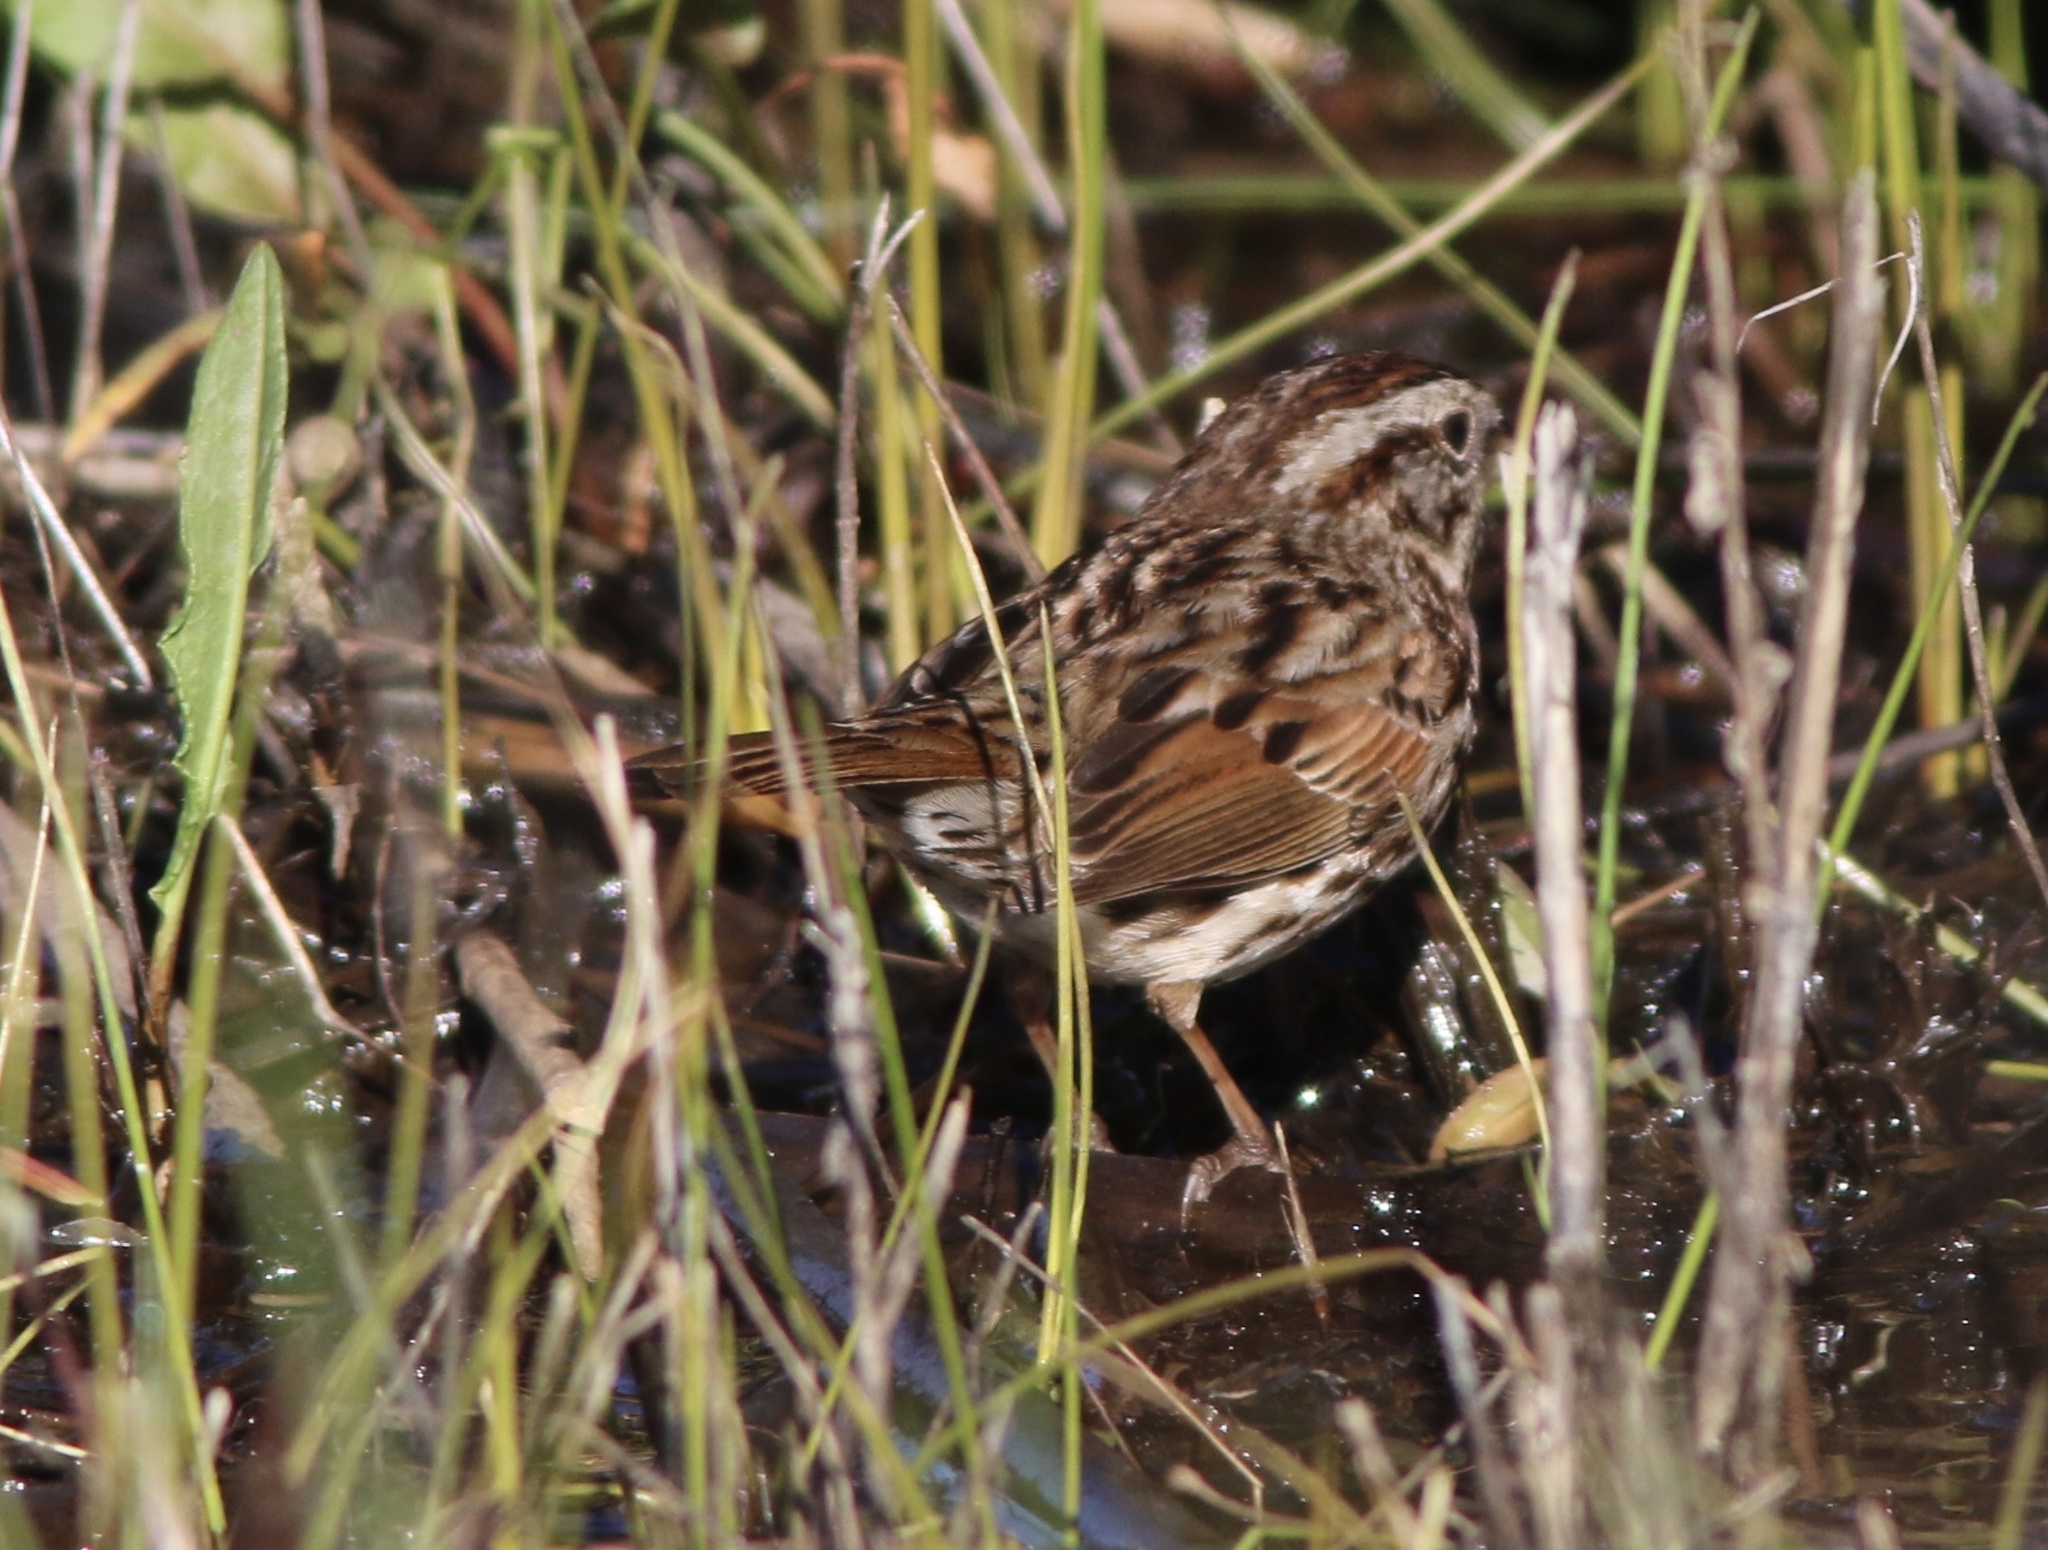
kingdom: Animalia
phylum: Chordata
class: Aves
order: Passeriformes
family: Passerellidae
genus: Melospiza
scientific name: Melospiza melodia
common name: Song sparrow
